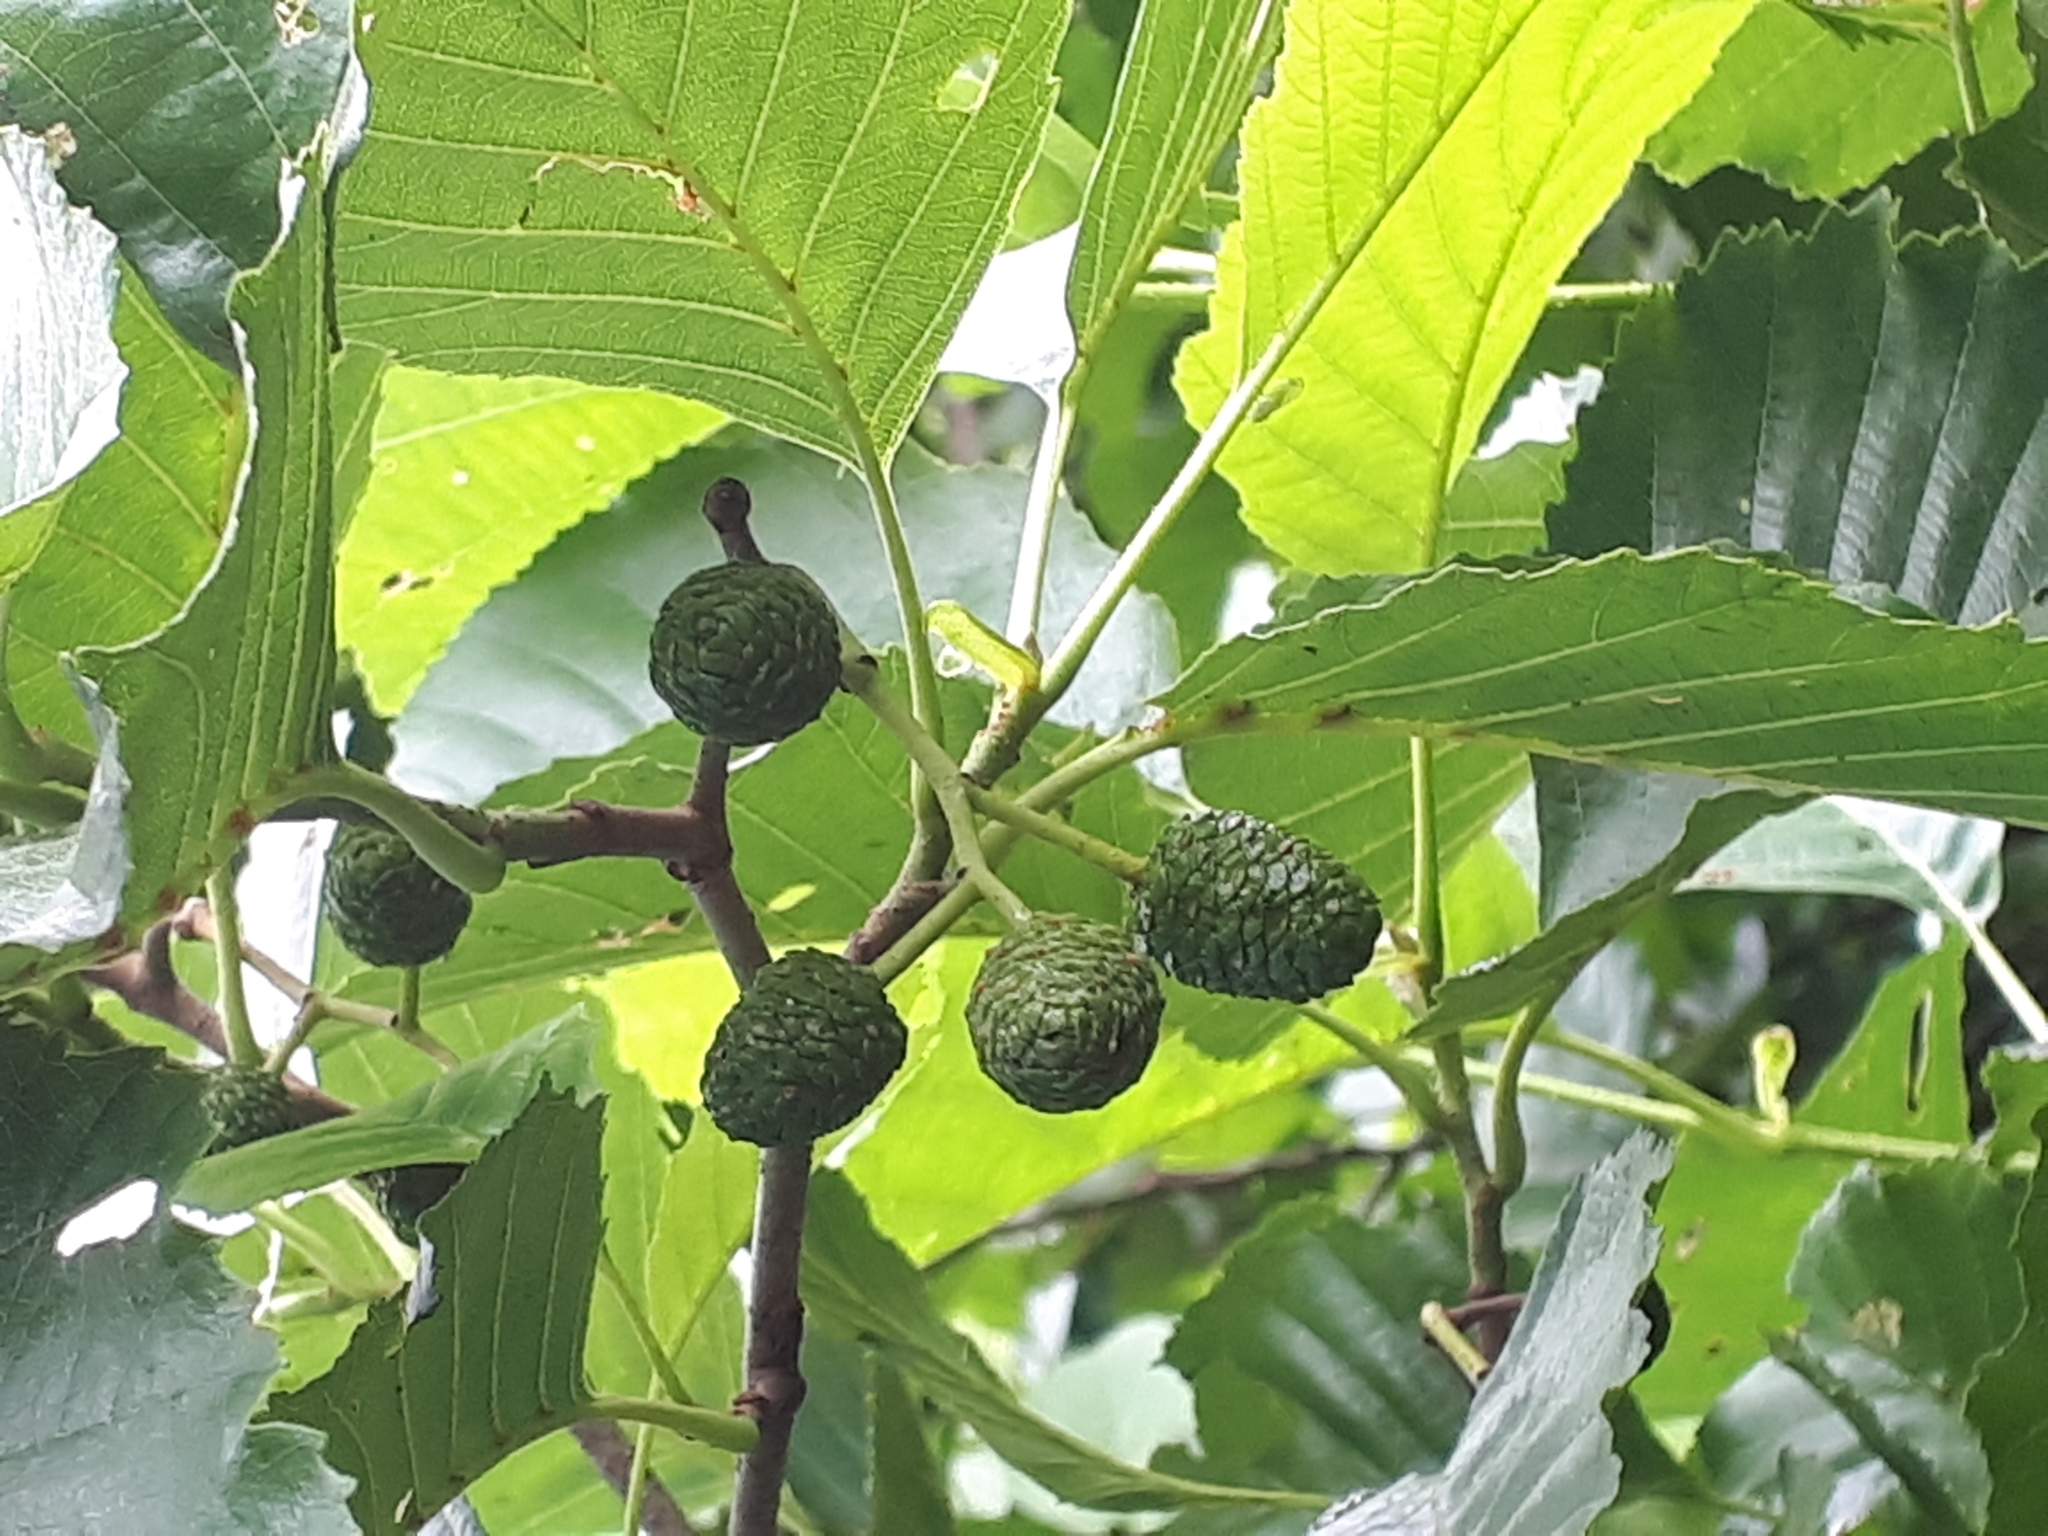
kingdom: Plantae
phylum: Tracheophyta
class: Magnoliopsida
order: Fagales
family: Betulaceae
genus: Alnus
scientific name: Alnus glutinosa
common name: Black alder
